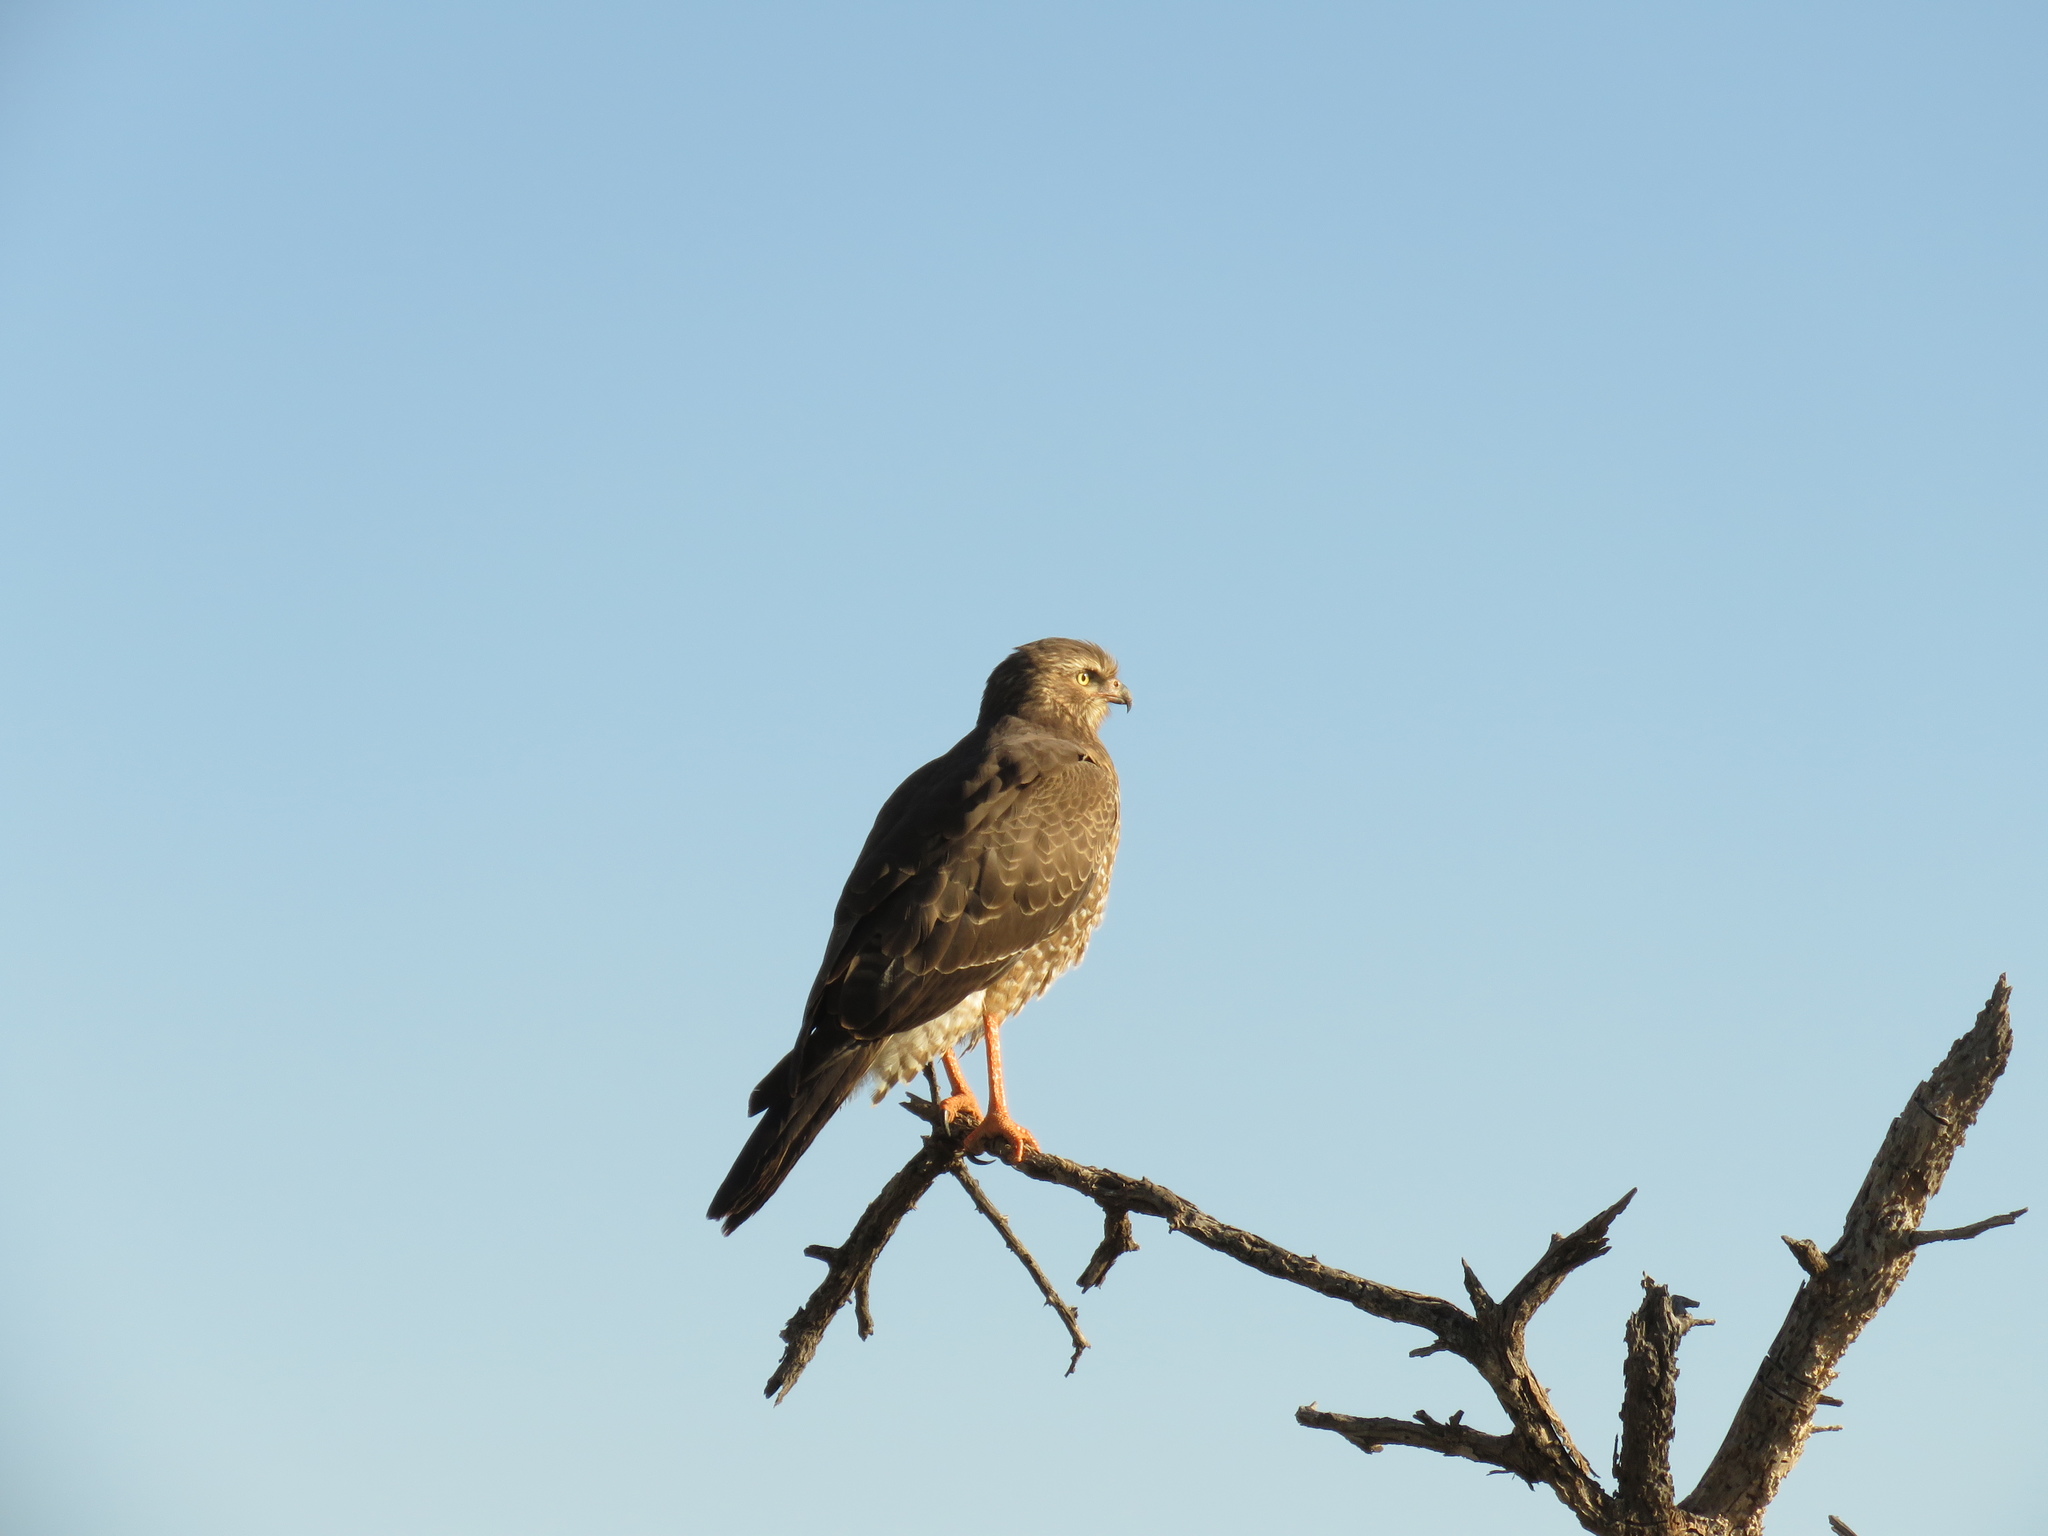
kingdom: Animalia
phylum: Chordata
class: Aves
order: Accipitriformes
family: Accipitridae
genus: Melierax
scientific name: Melierax canorus
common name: Pale chanting-goshawk
